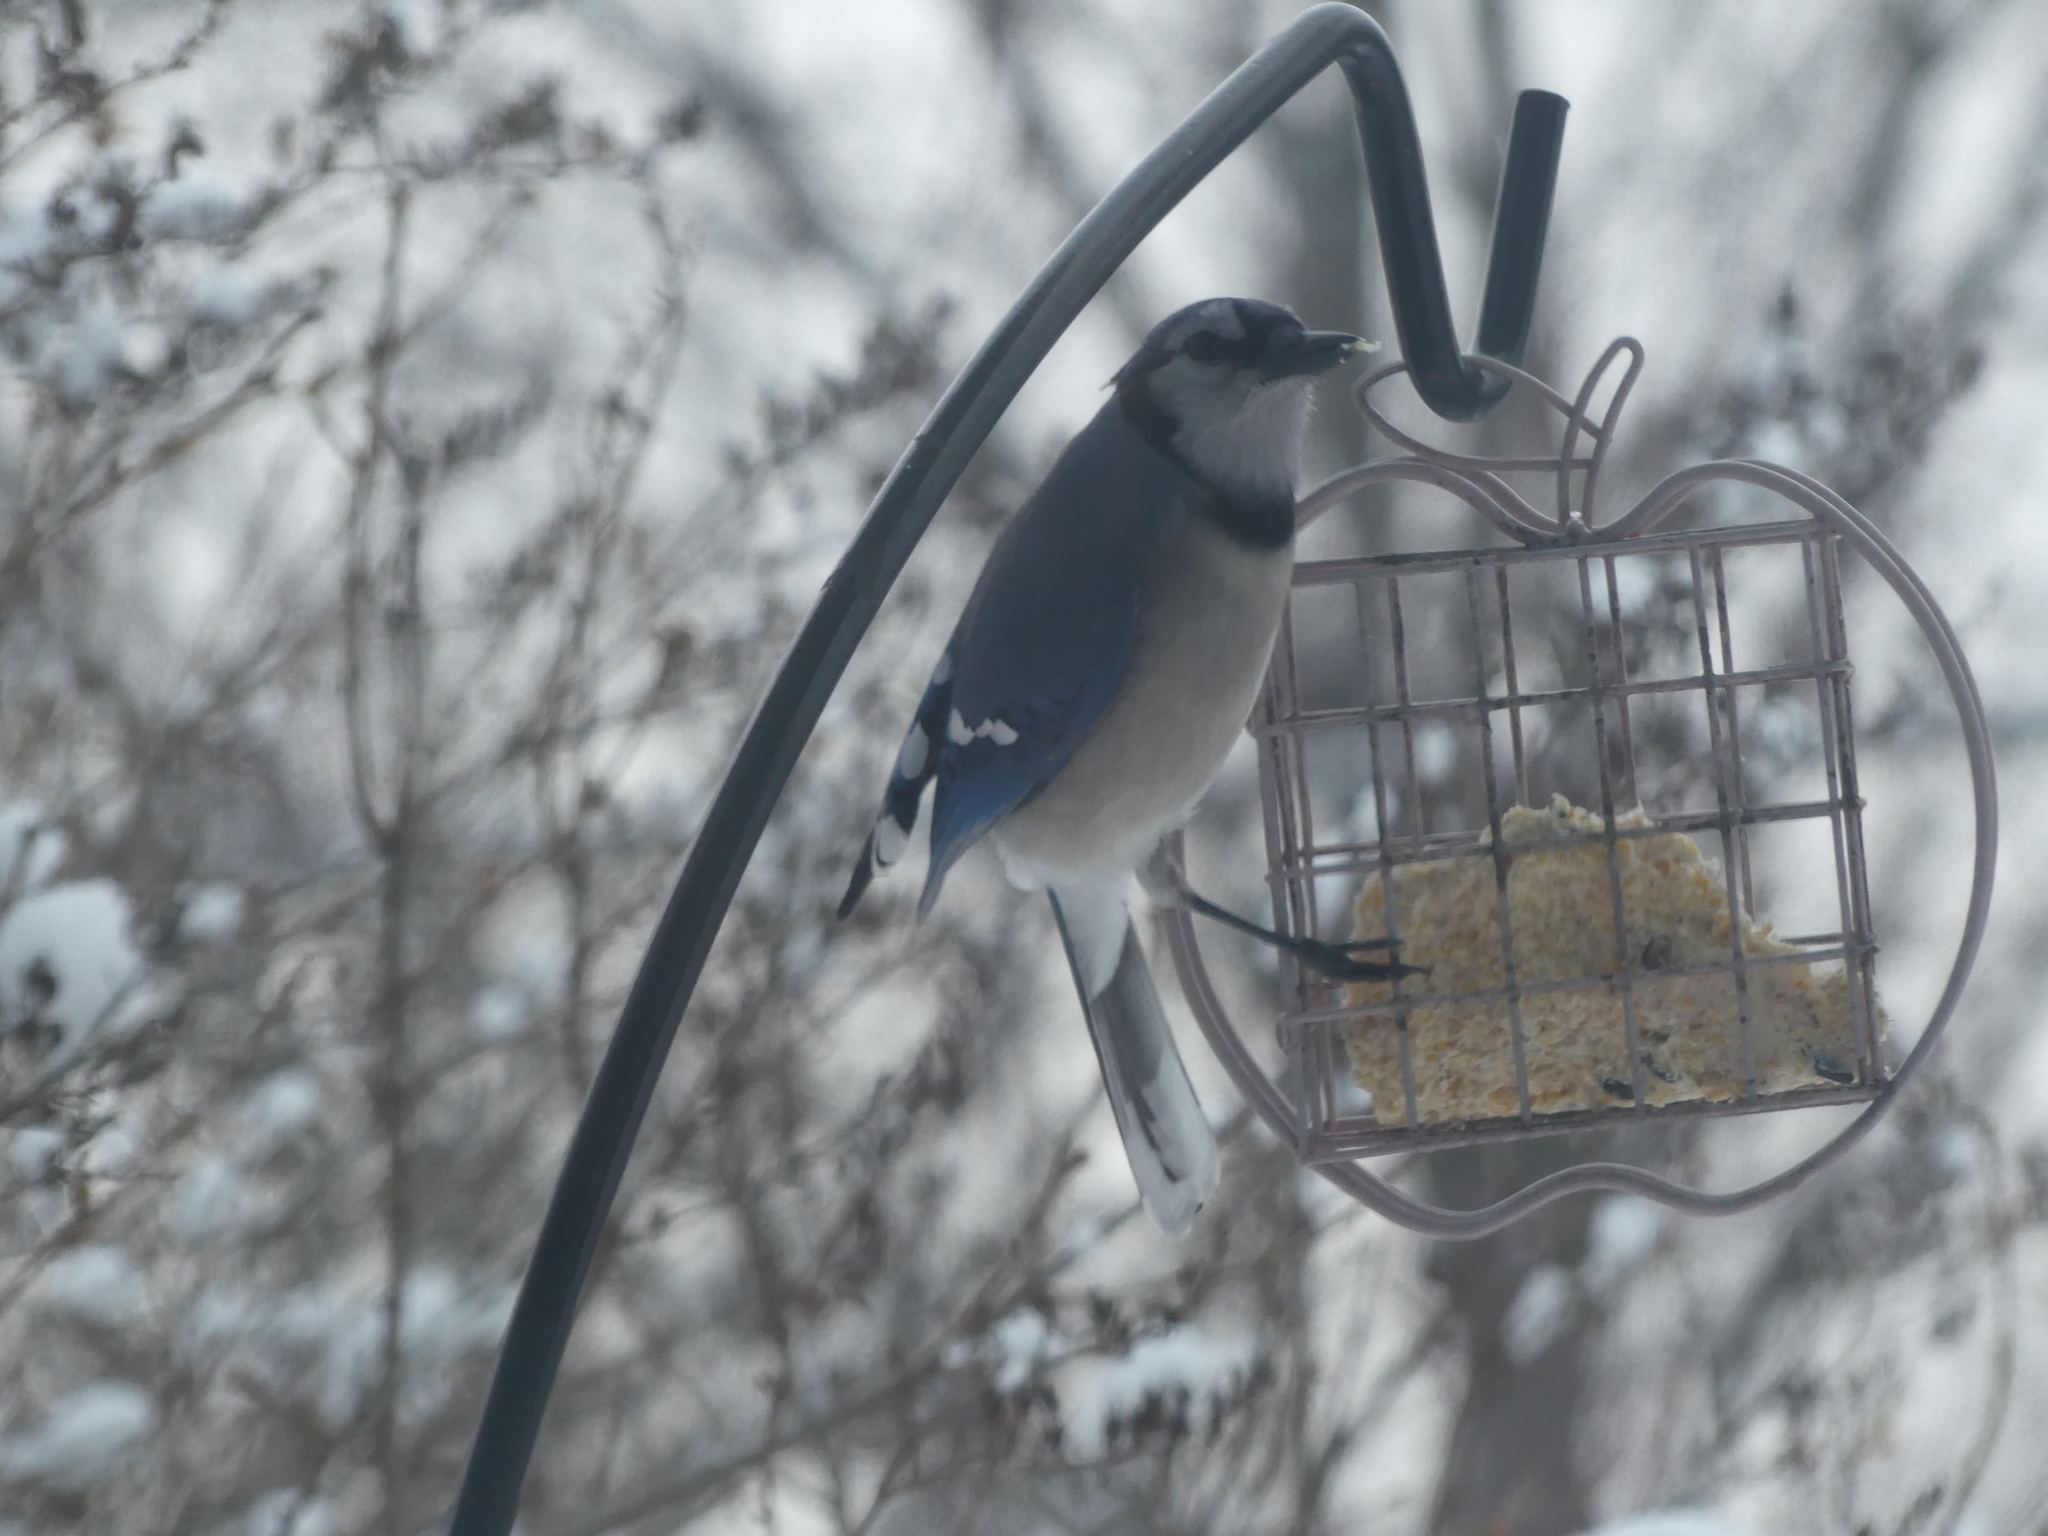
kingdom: Animalia
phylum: Chordata
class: Aves
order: Passeriformes
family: Corvidae
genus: Cyanocitta
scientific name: Cyanocitta cristata
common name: Blue jay
